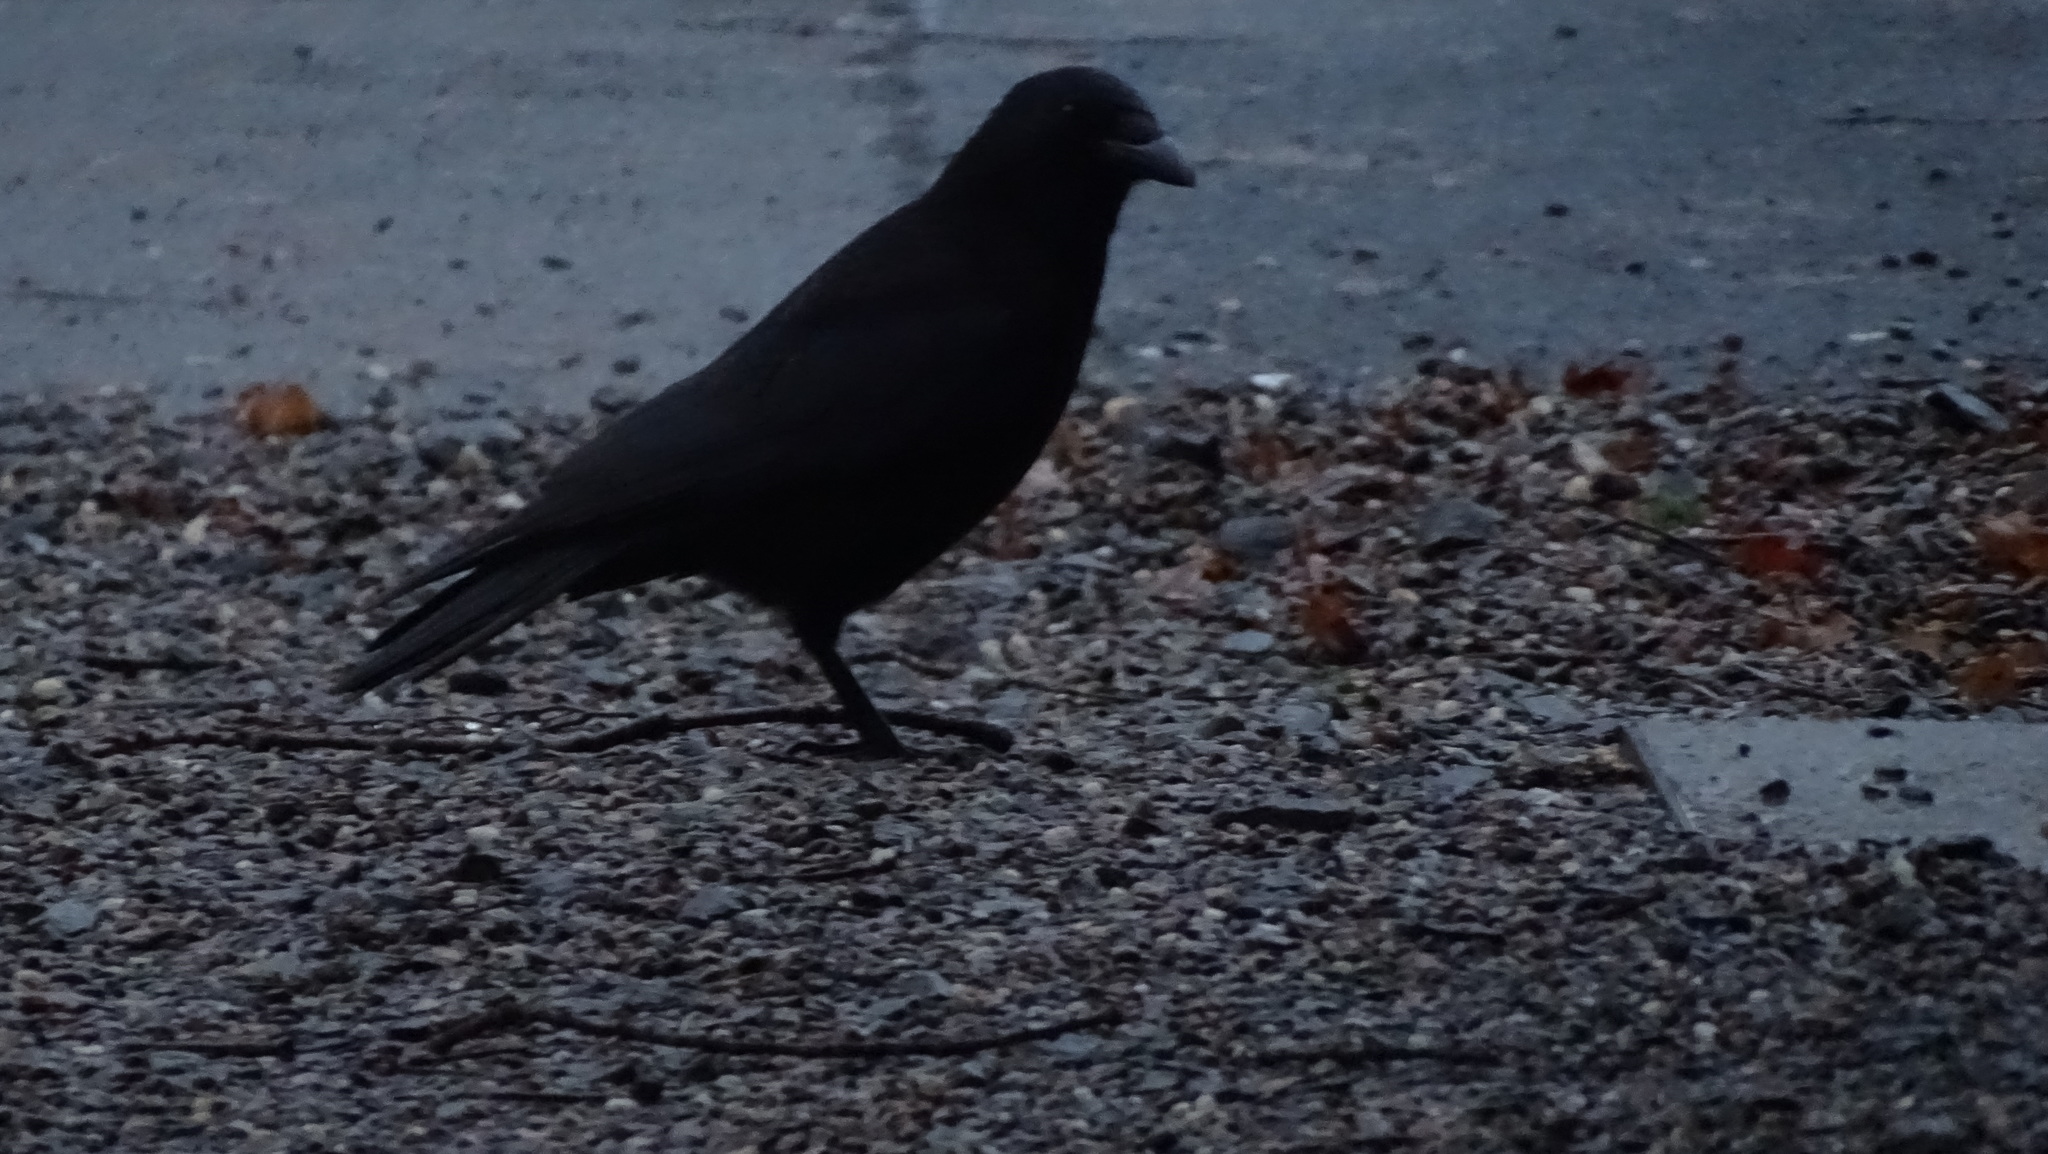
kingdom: Animalia
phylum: Chordata
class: Aves
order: Passeriformes
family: Corvidae
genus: Corvus
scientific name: Corvus corone
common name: Carrion crow
